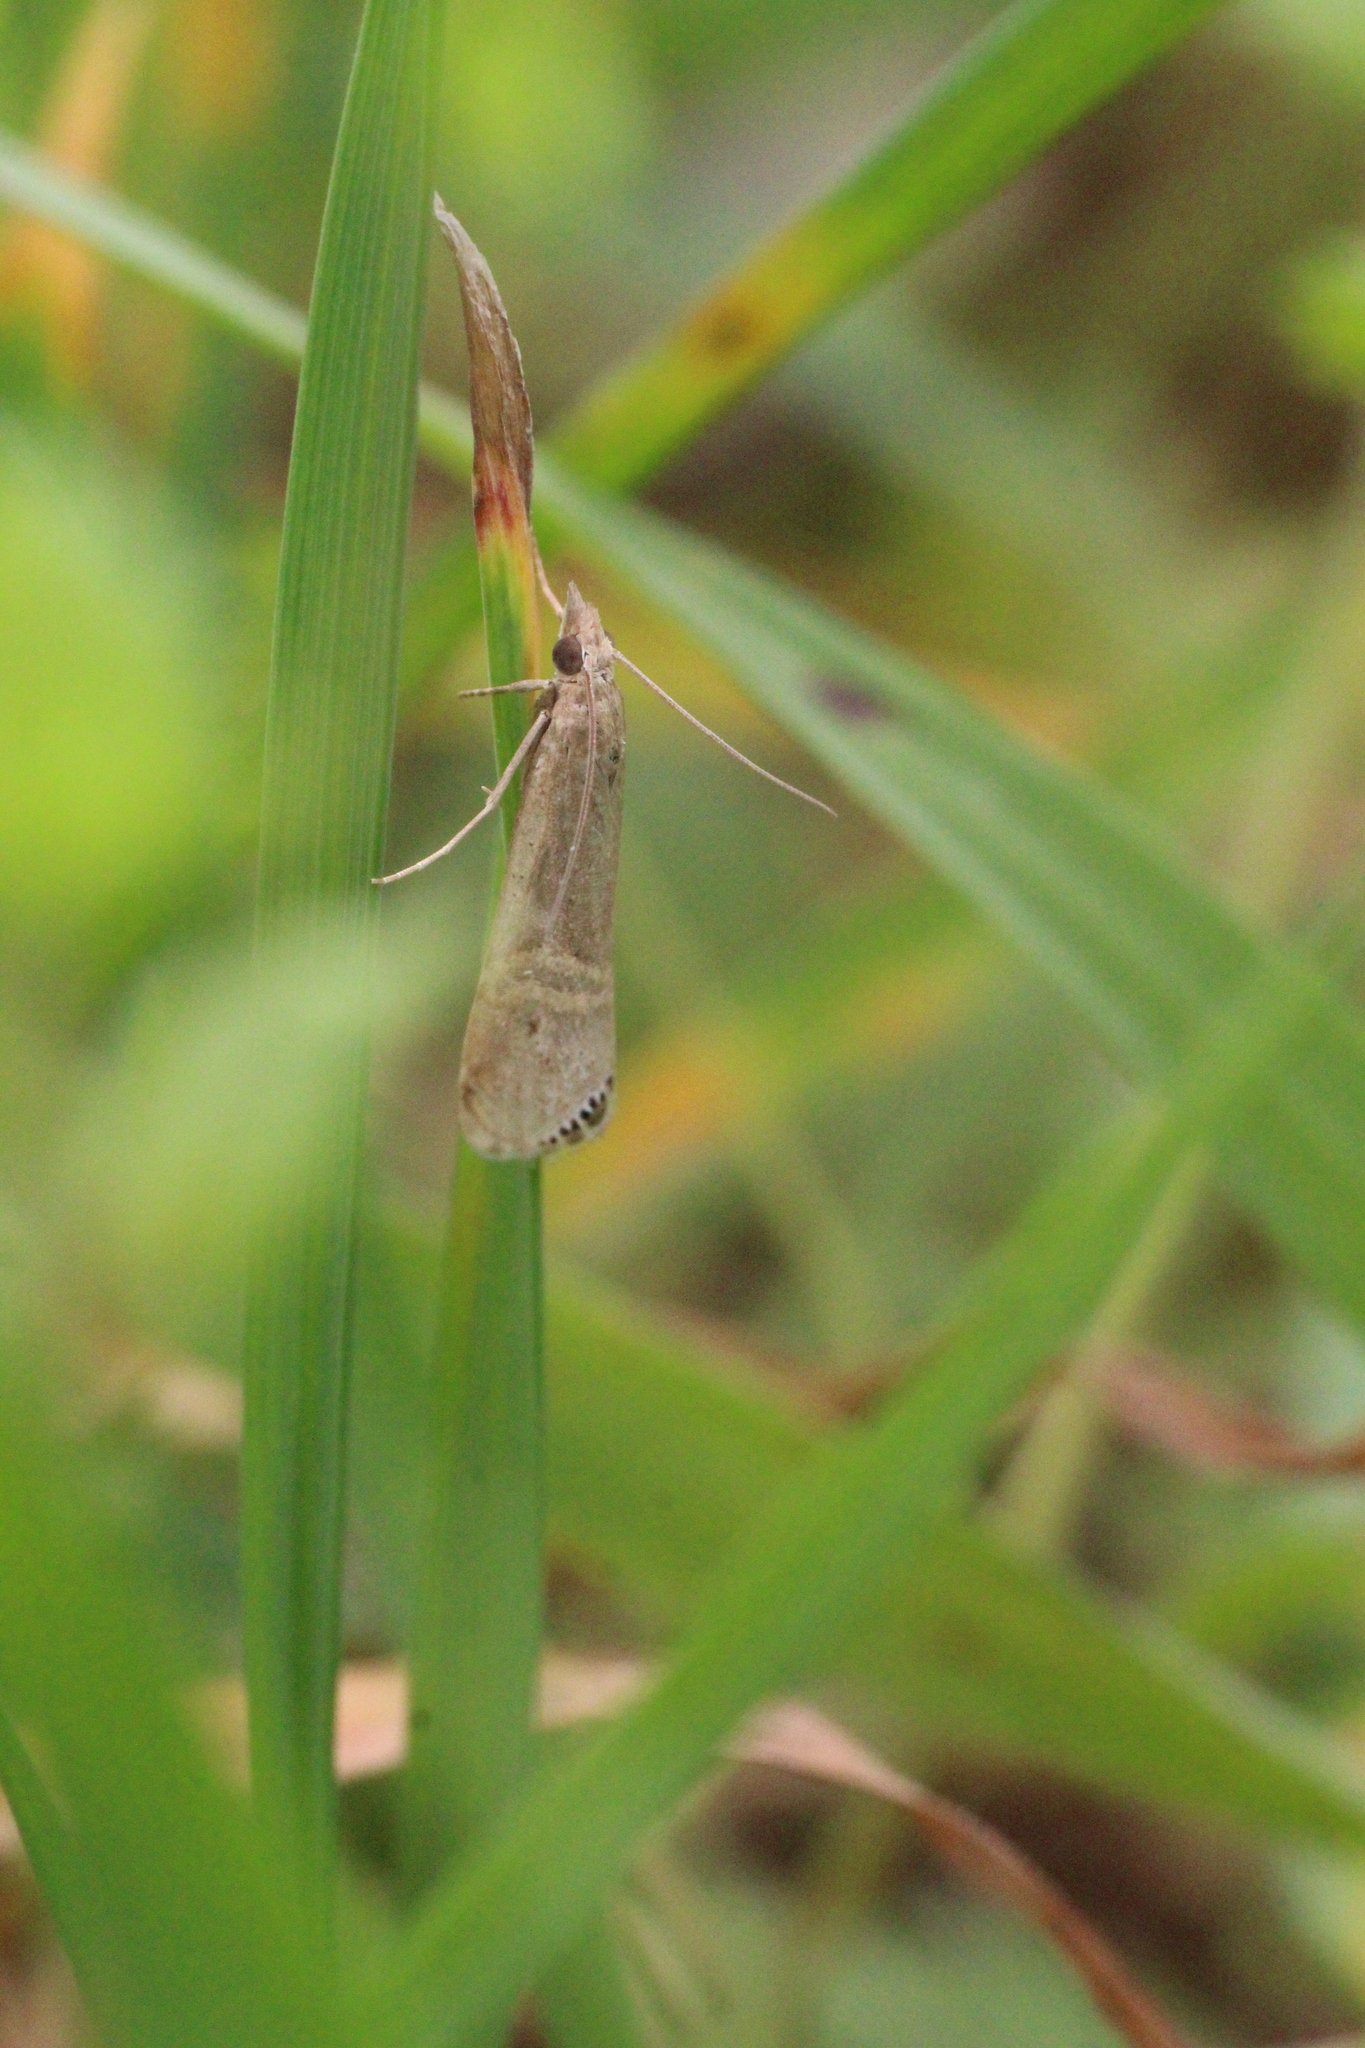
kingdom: Animalia
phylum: Arthropoda
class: Insecta
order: Lepidoptera
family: Crambidae
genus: Euchromius
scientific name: Euchromius ocellea
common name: Necklace veneer moth
